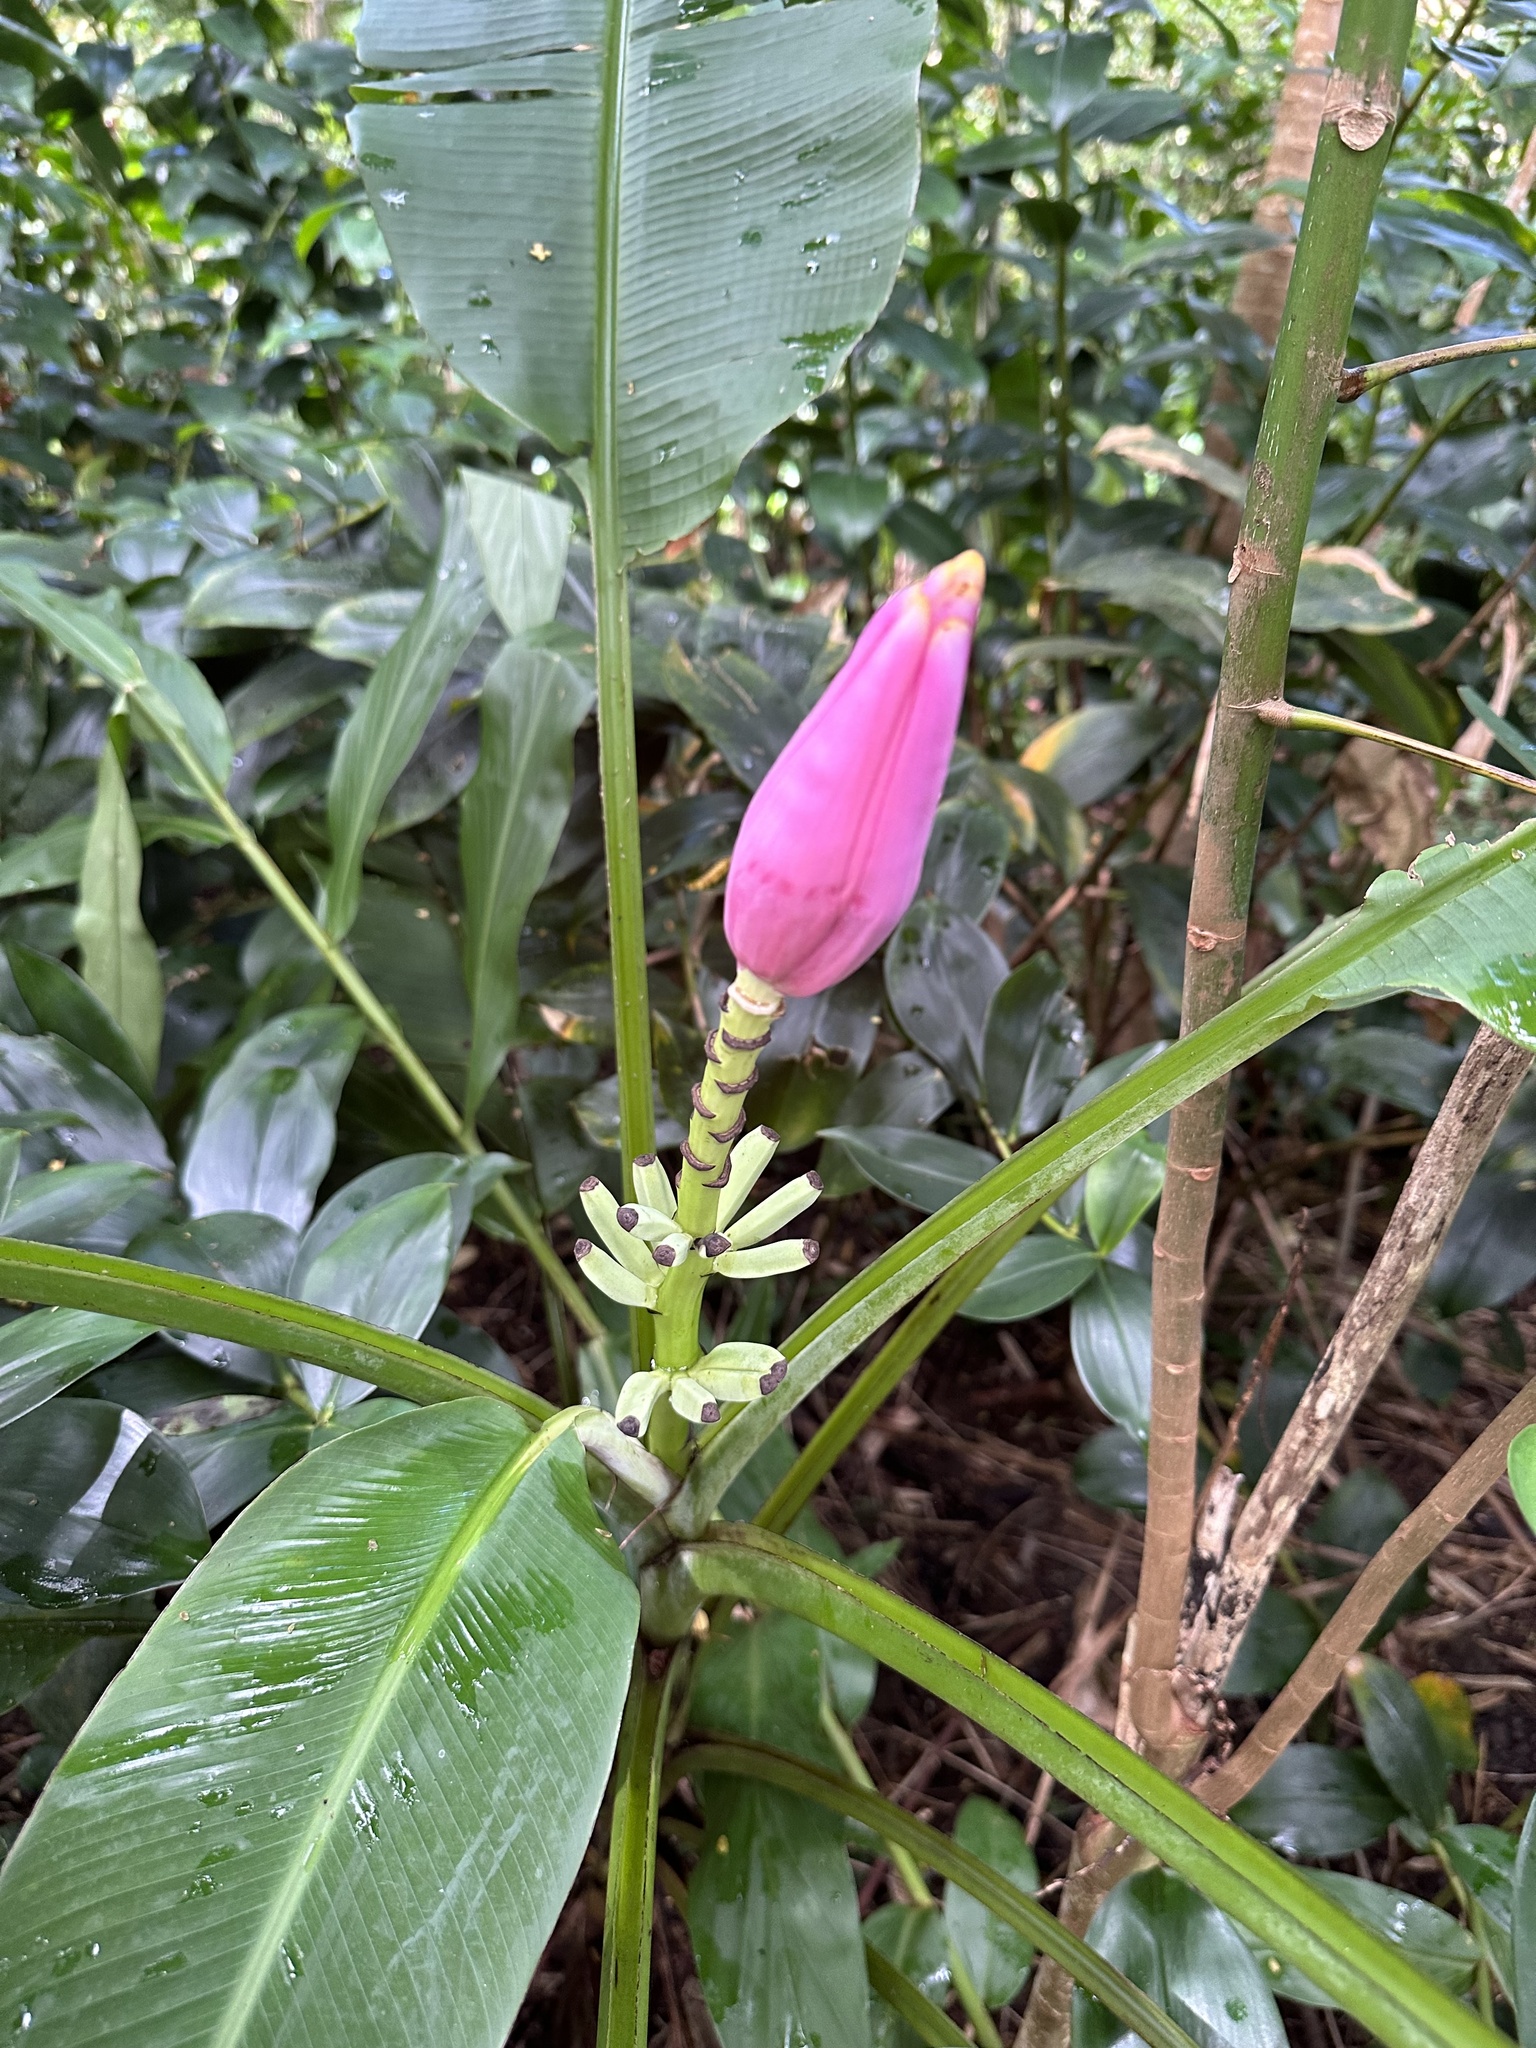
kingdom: Plantae
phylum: Tracheophyta
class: Liliopsida
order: Zingiberales
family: Musaceae
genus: Musa
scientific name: Musa ornata
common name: Flowering banana
